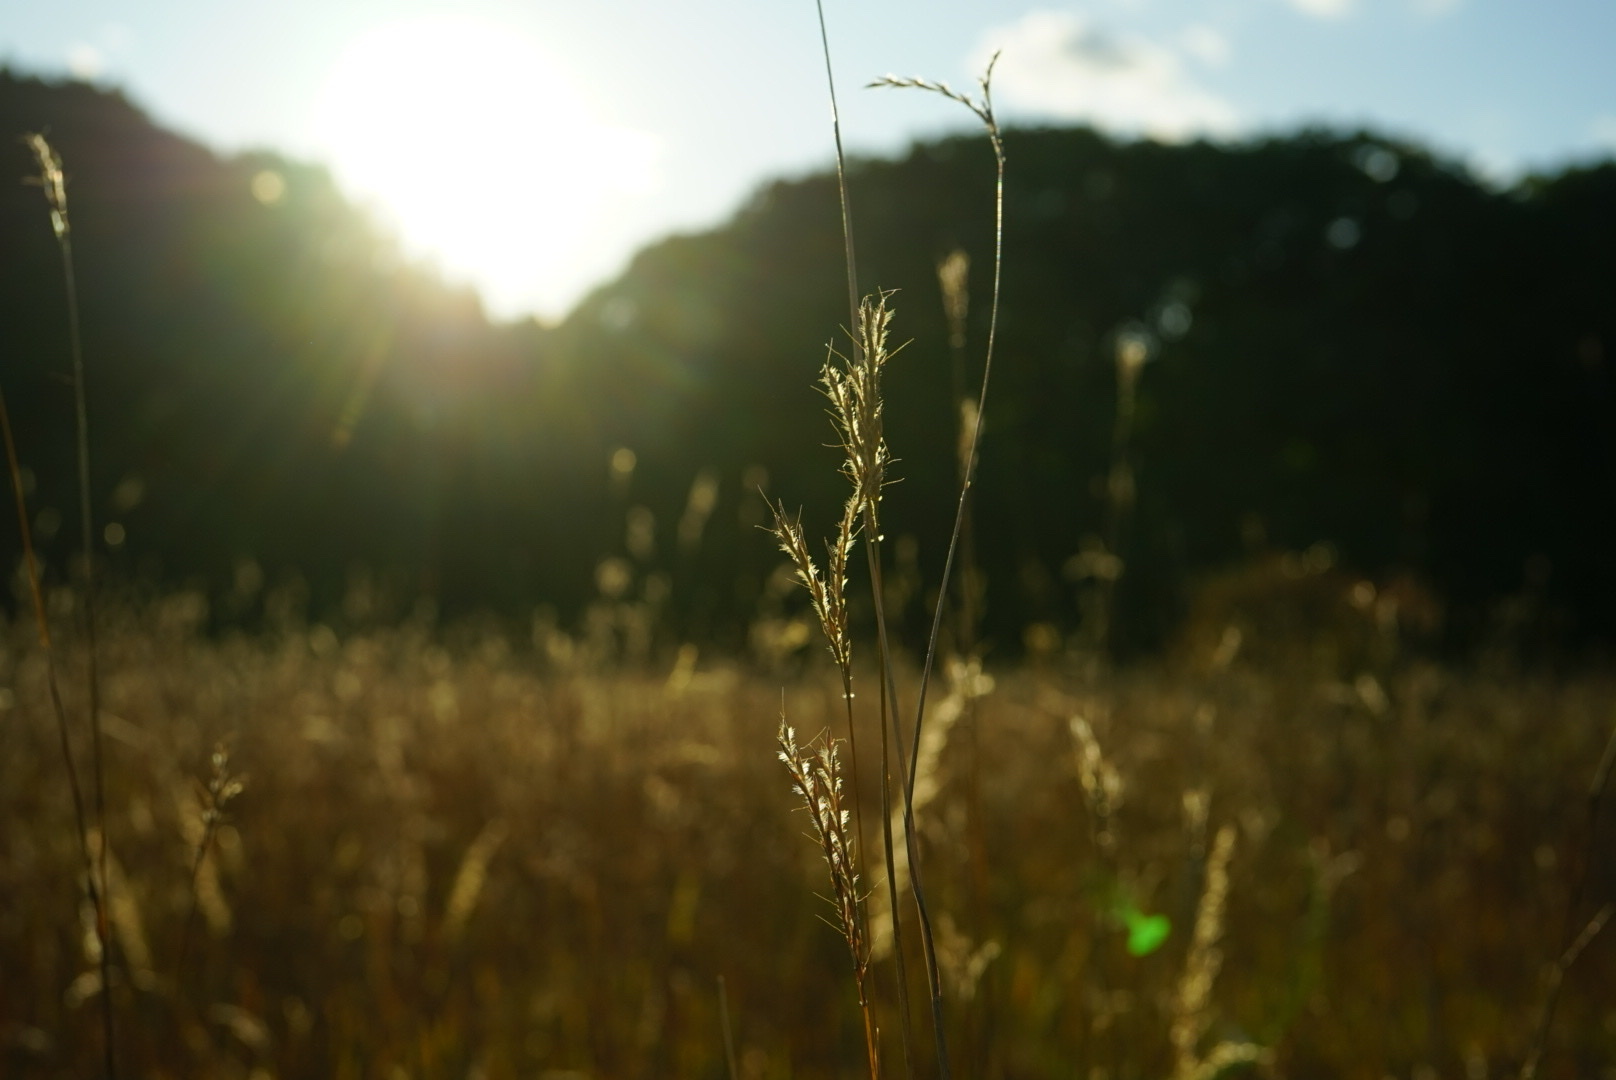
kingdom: Plantae
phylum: Tracheophyta
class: Liliopsida
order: Poales
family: Poaceae
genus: Andropogon
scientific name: Andropogon gerardi
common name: Big bluestem
